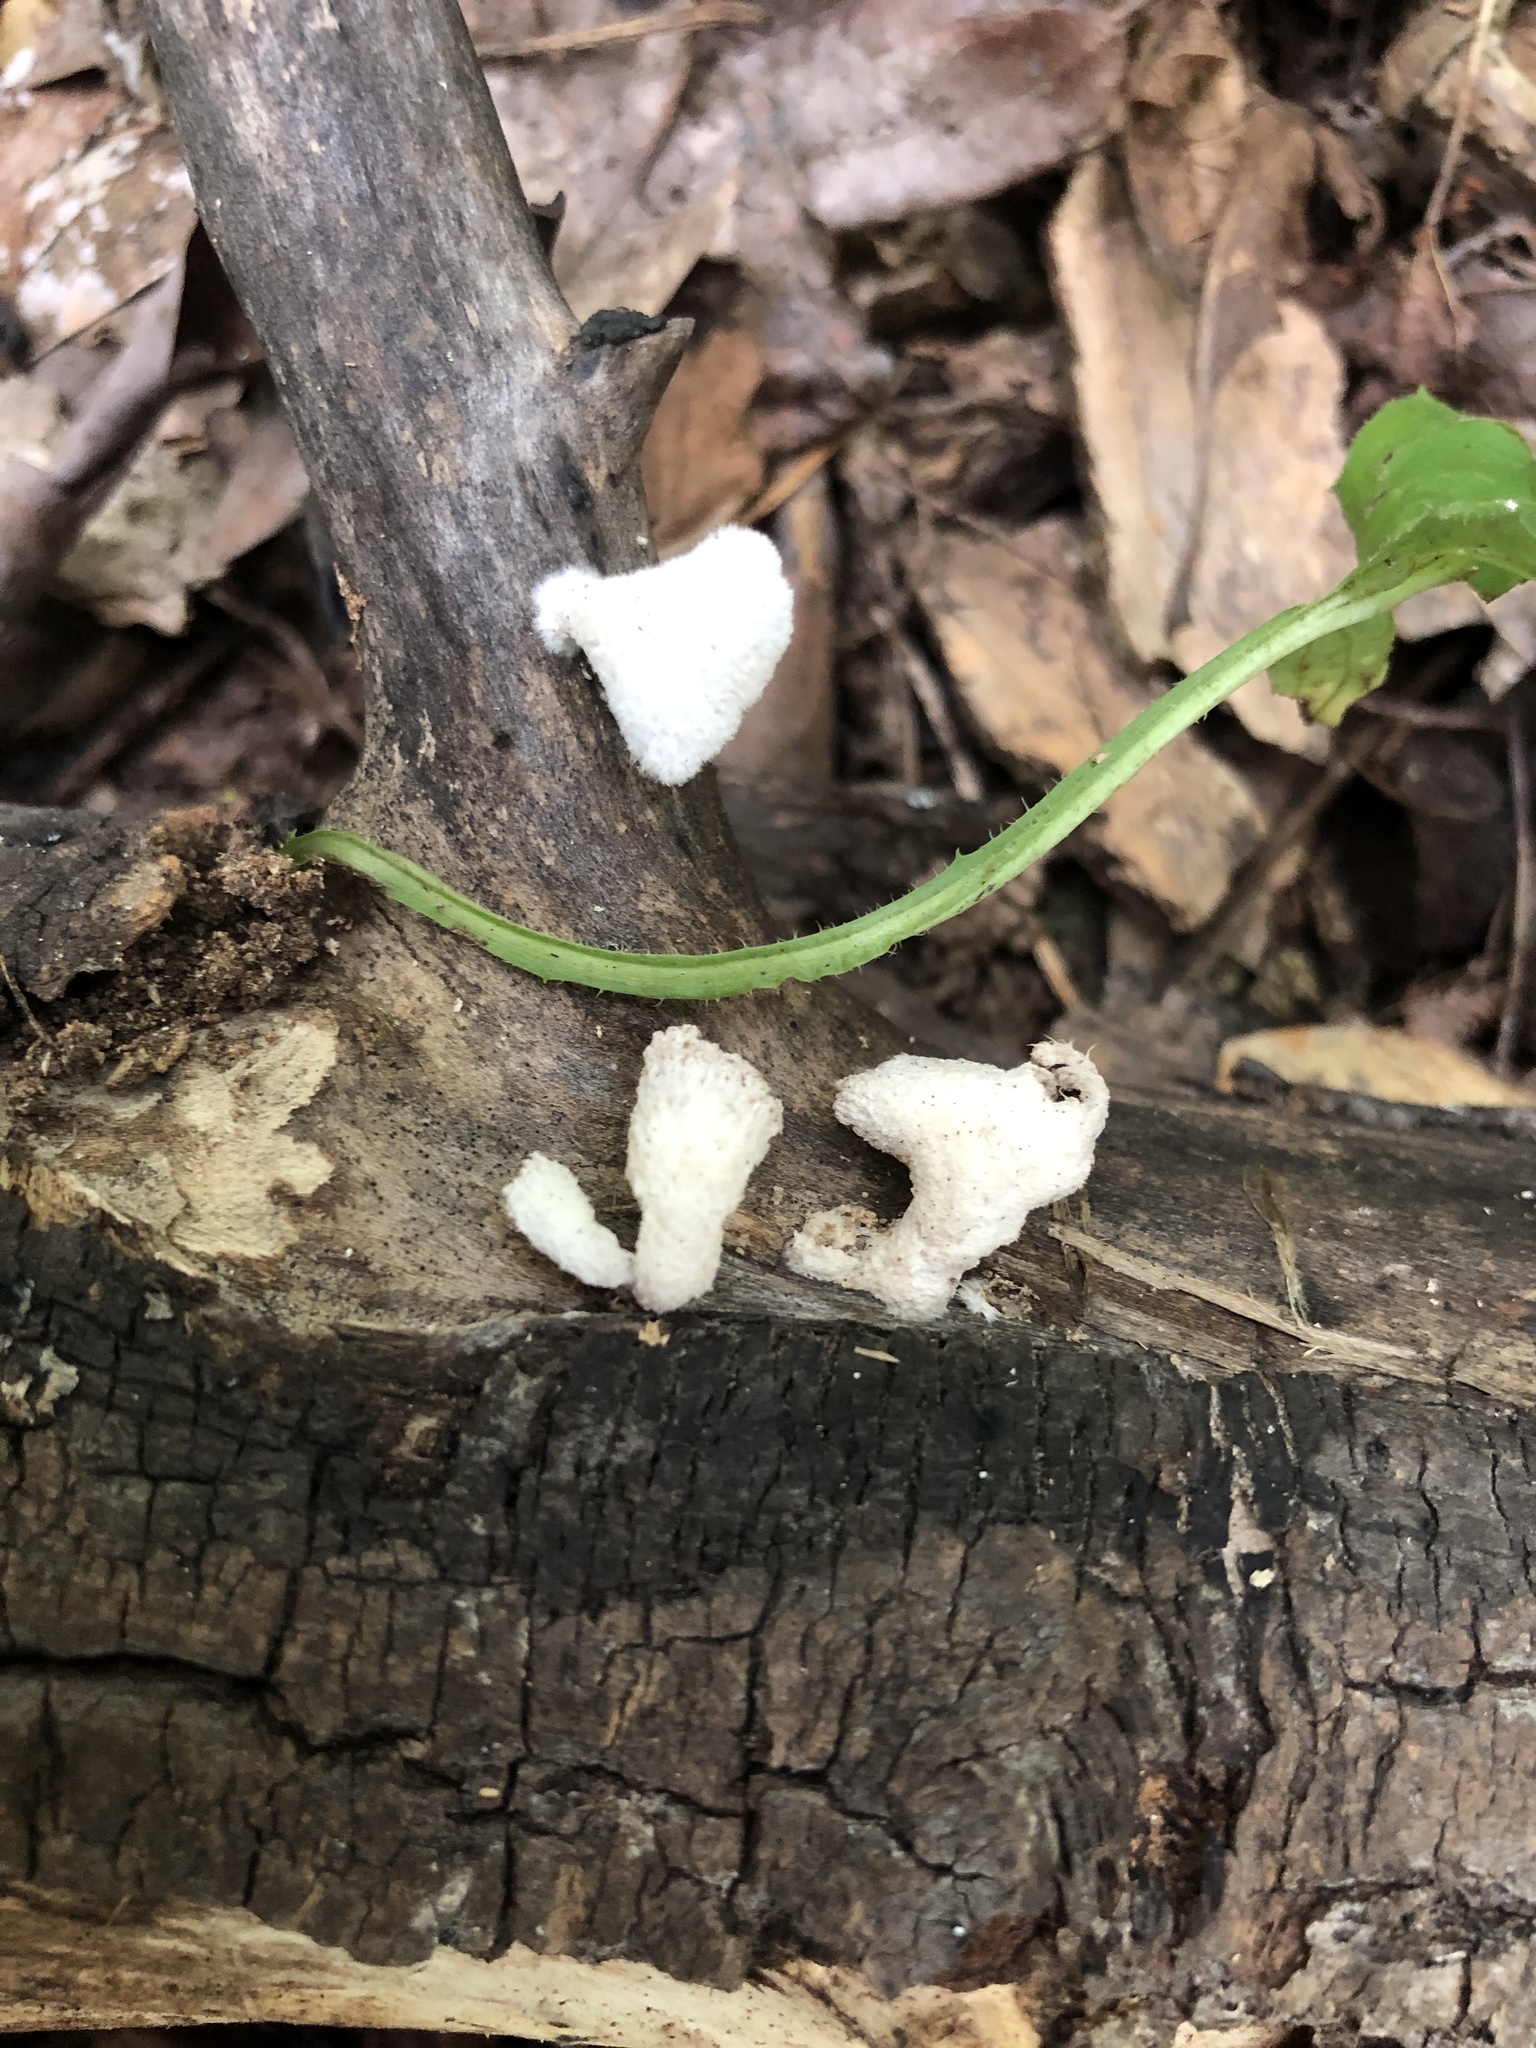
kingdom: Fungi
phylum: Basidiomycota
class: Agaricomycetes
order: Agaricales
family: Schizophyllaceae
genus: Schizophyllum
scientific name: Schizophyllum commune
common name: Common porecrust
